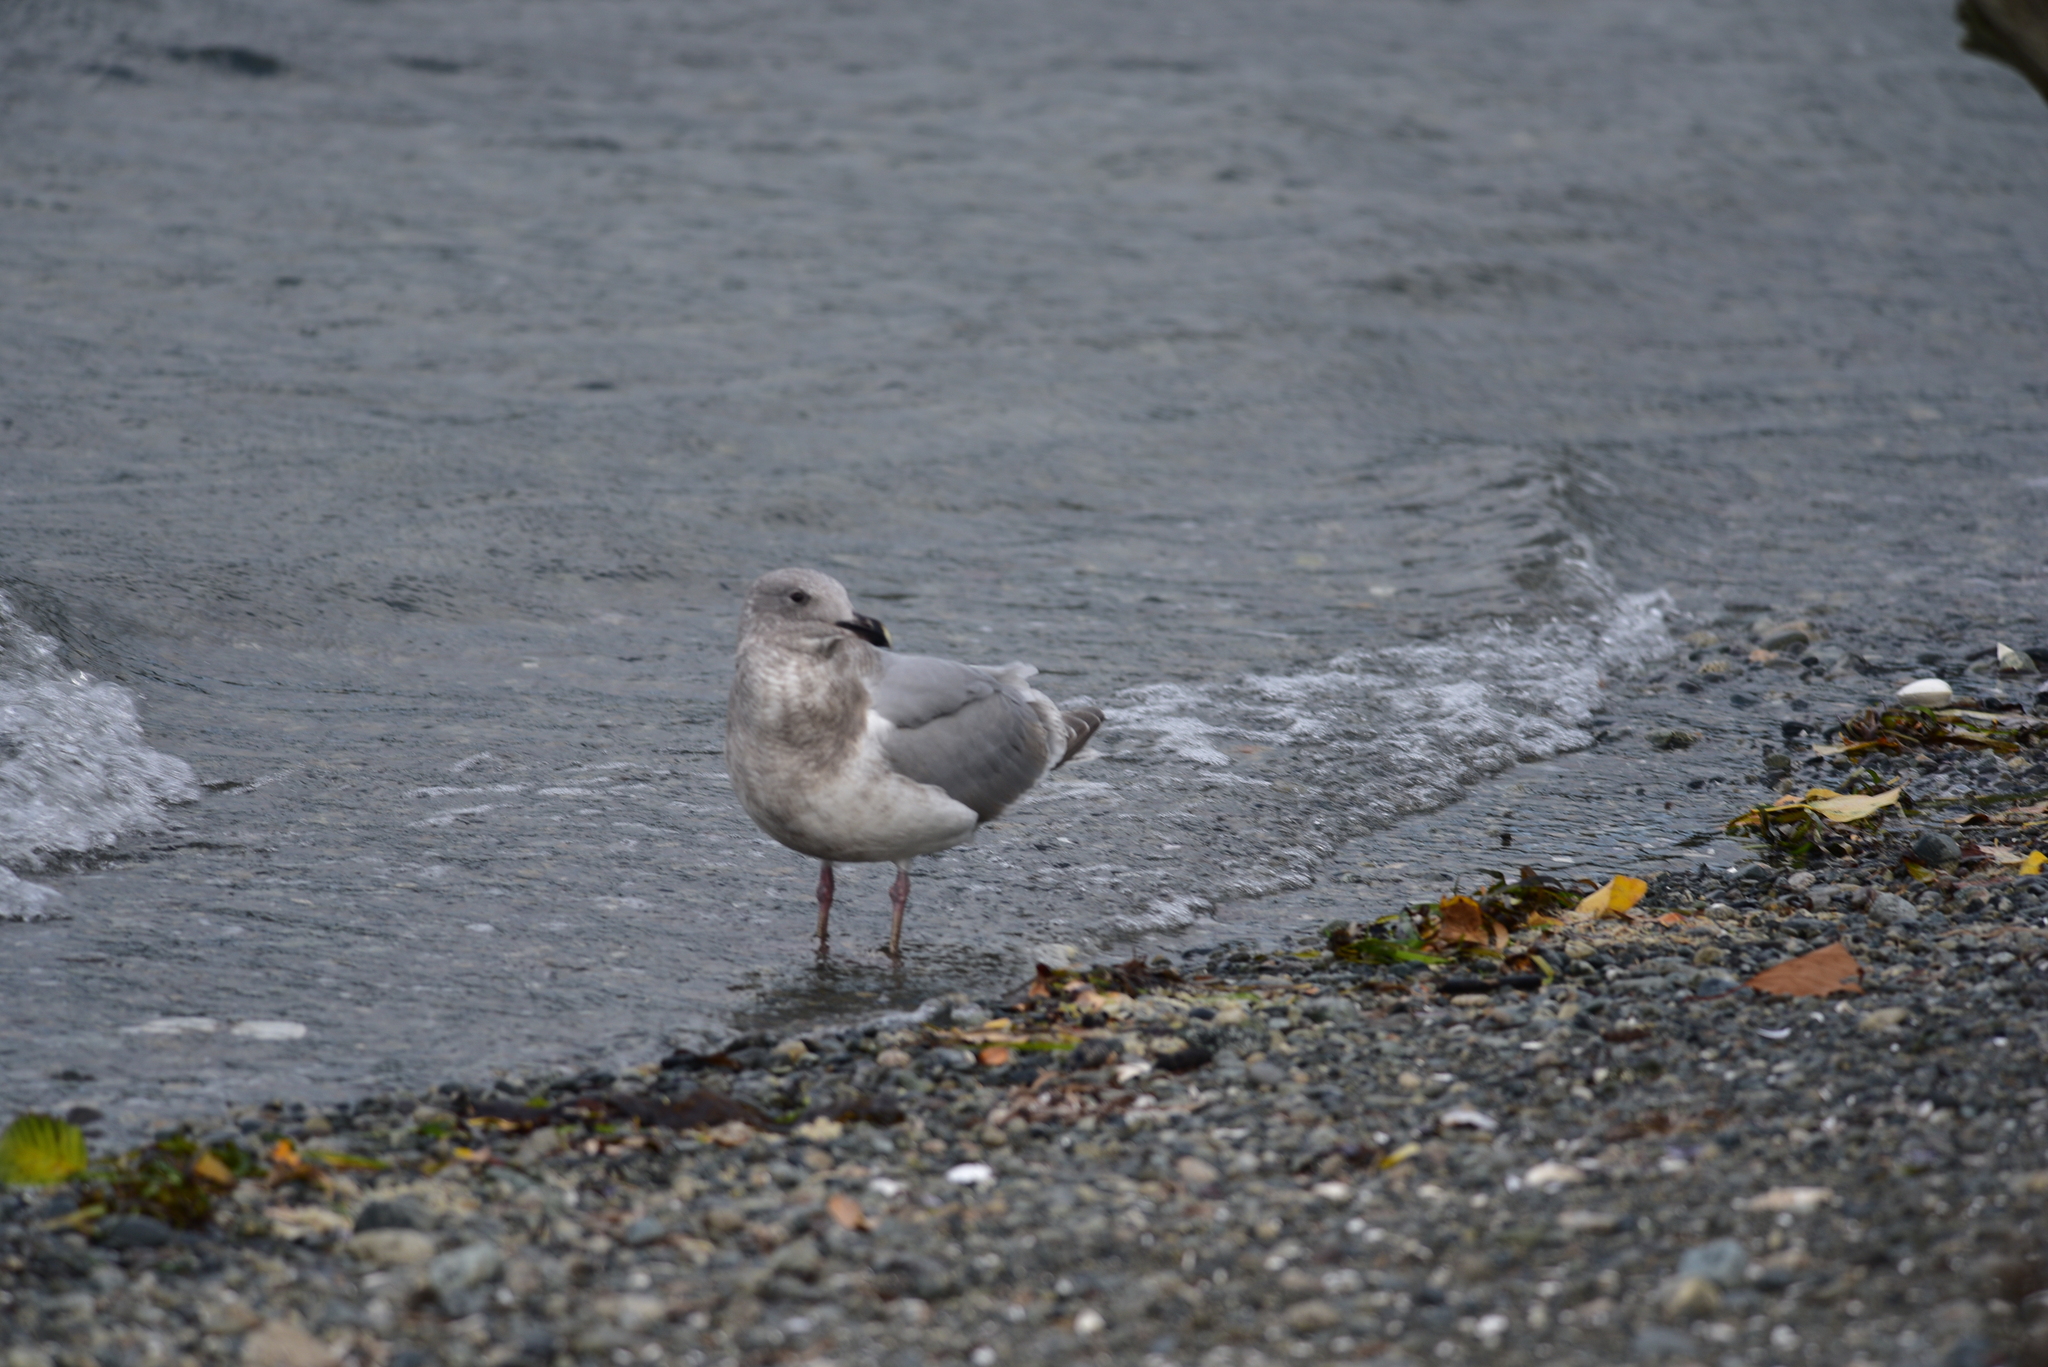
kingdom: Animalia
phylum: Chordata
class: Aves
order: Charadriiformes
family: Laridae
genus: Larus
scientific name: Larus
